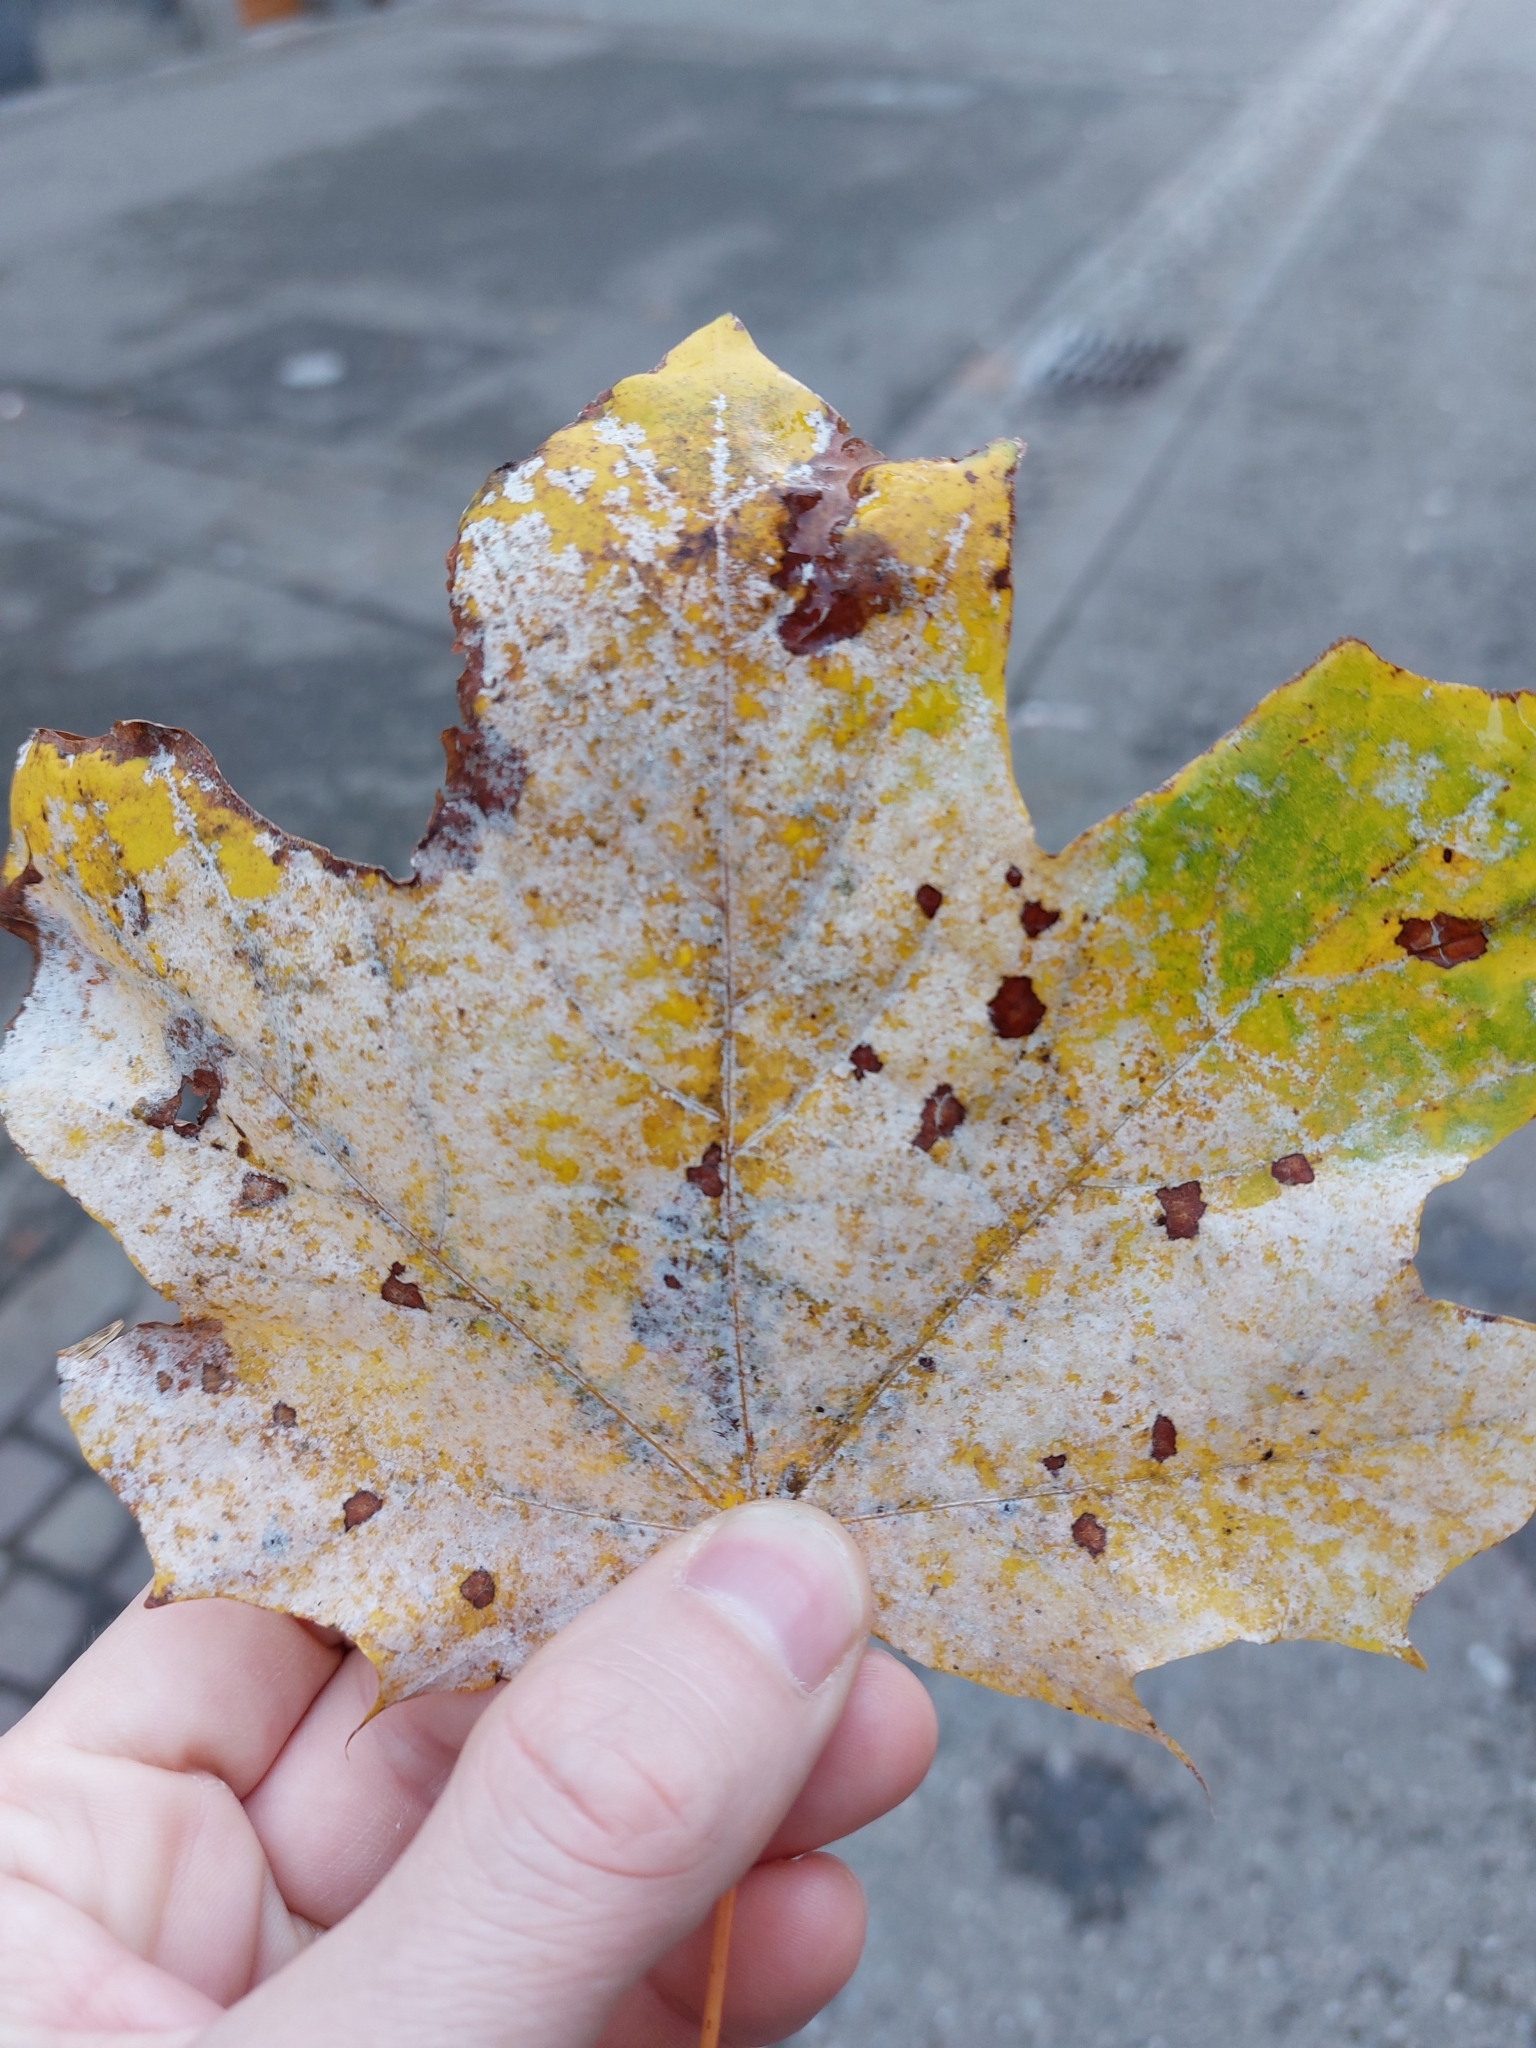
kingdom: Fungi
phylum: Ascomycota
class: Leotiomycetes
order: Helotiales
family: Erysiphaceae
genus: Sawadaea
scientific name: Sawadaea tulasnei
